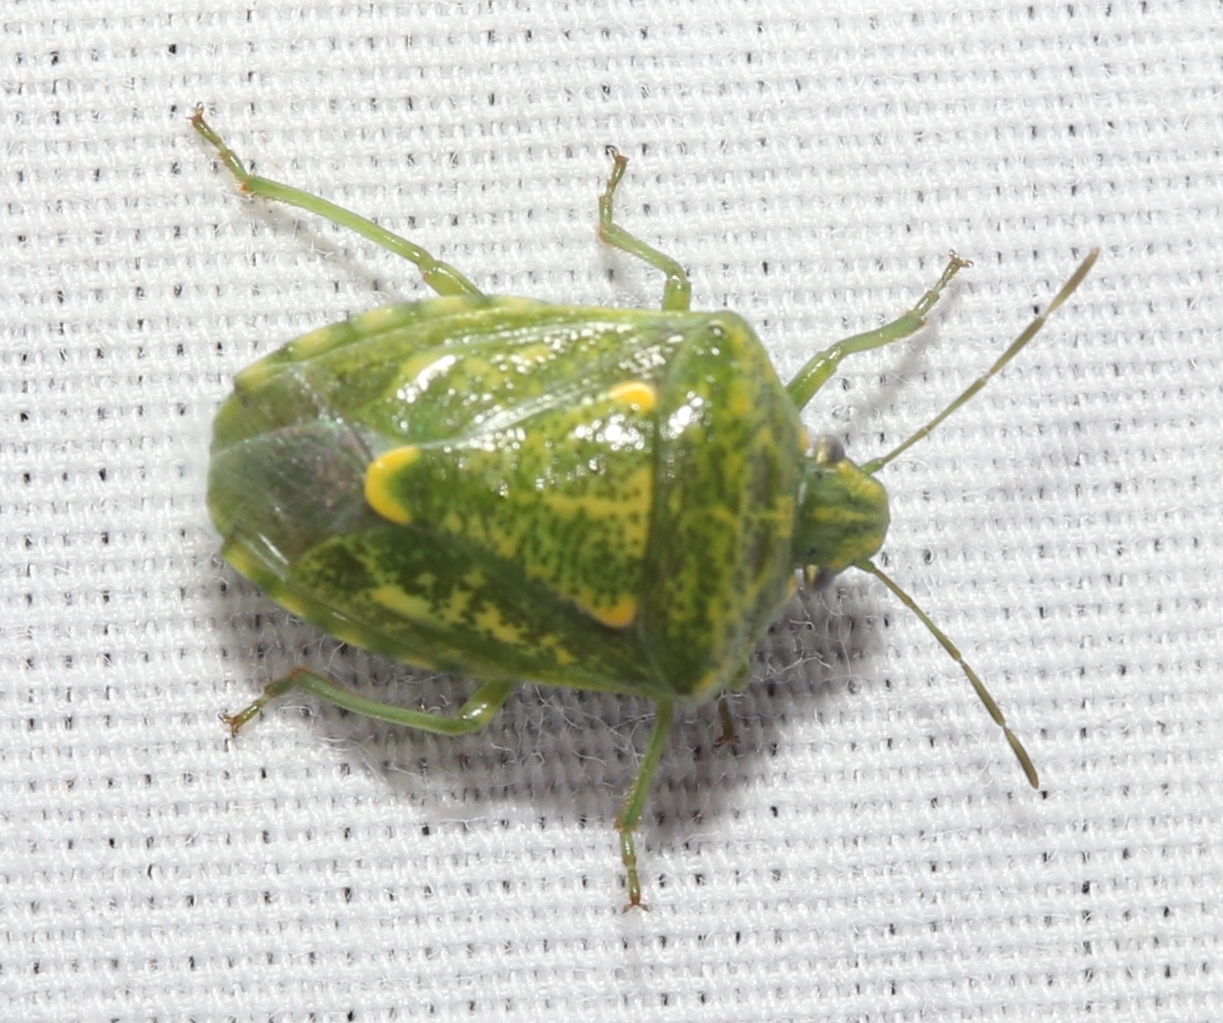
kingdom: Animalia
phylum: Arthropoda
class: Insecta
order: Hemiptera
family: Pentatomidae
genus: Banasa
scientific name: Banasa euchlora
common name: Cedar berry bug
